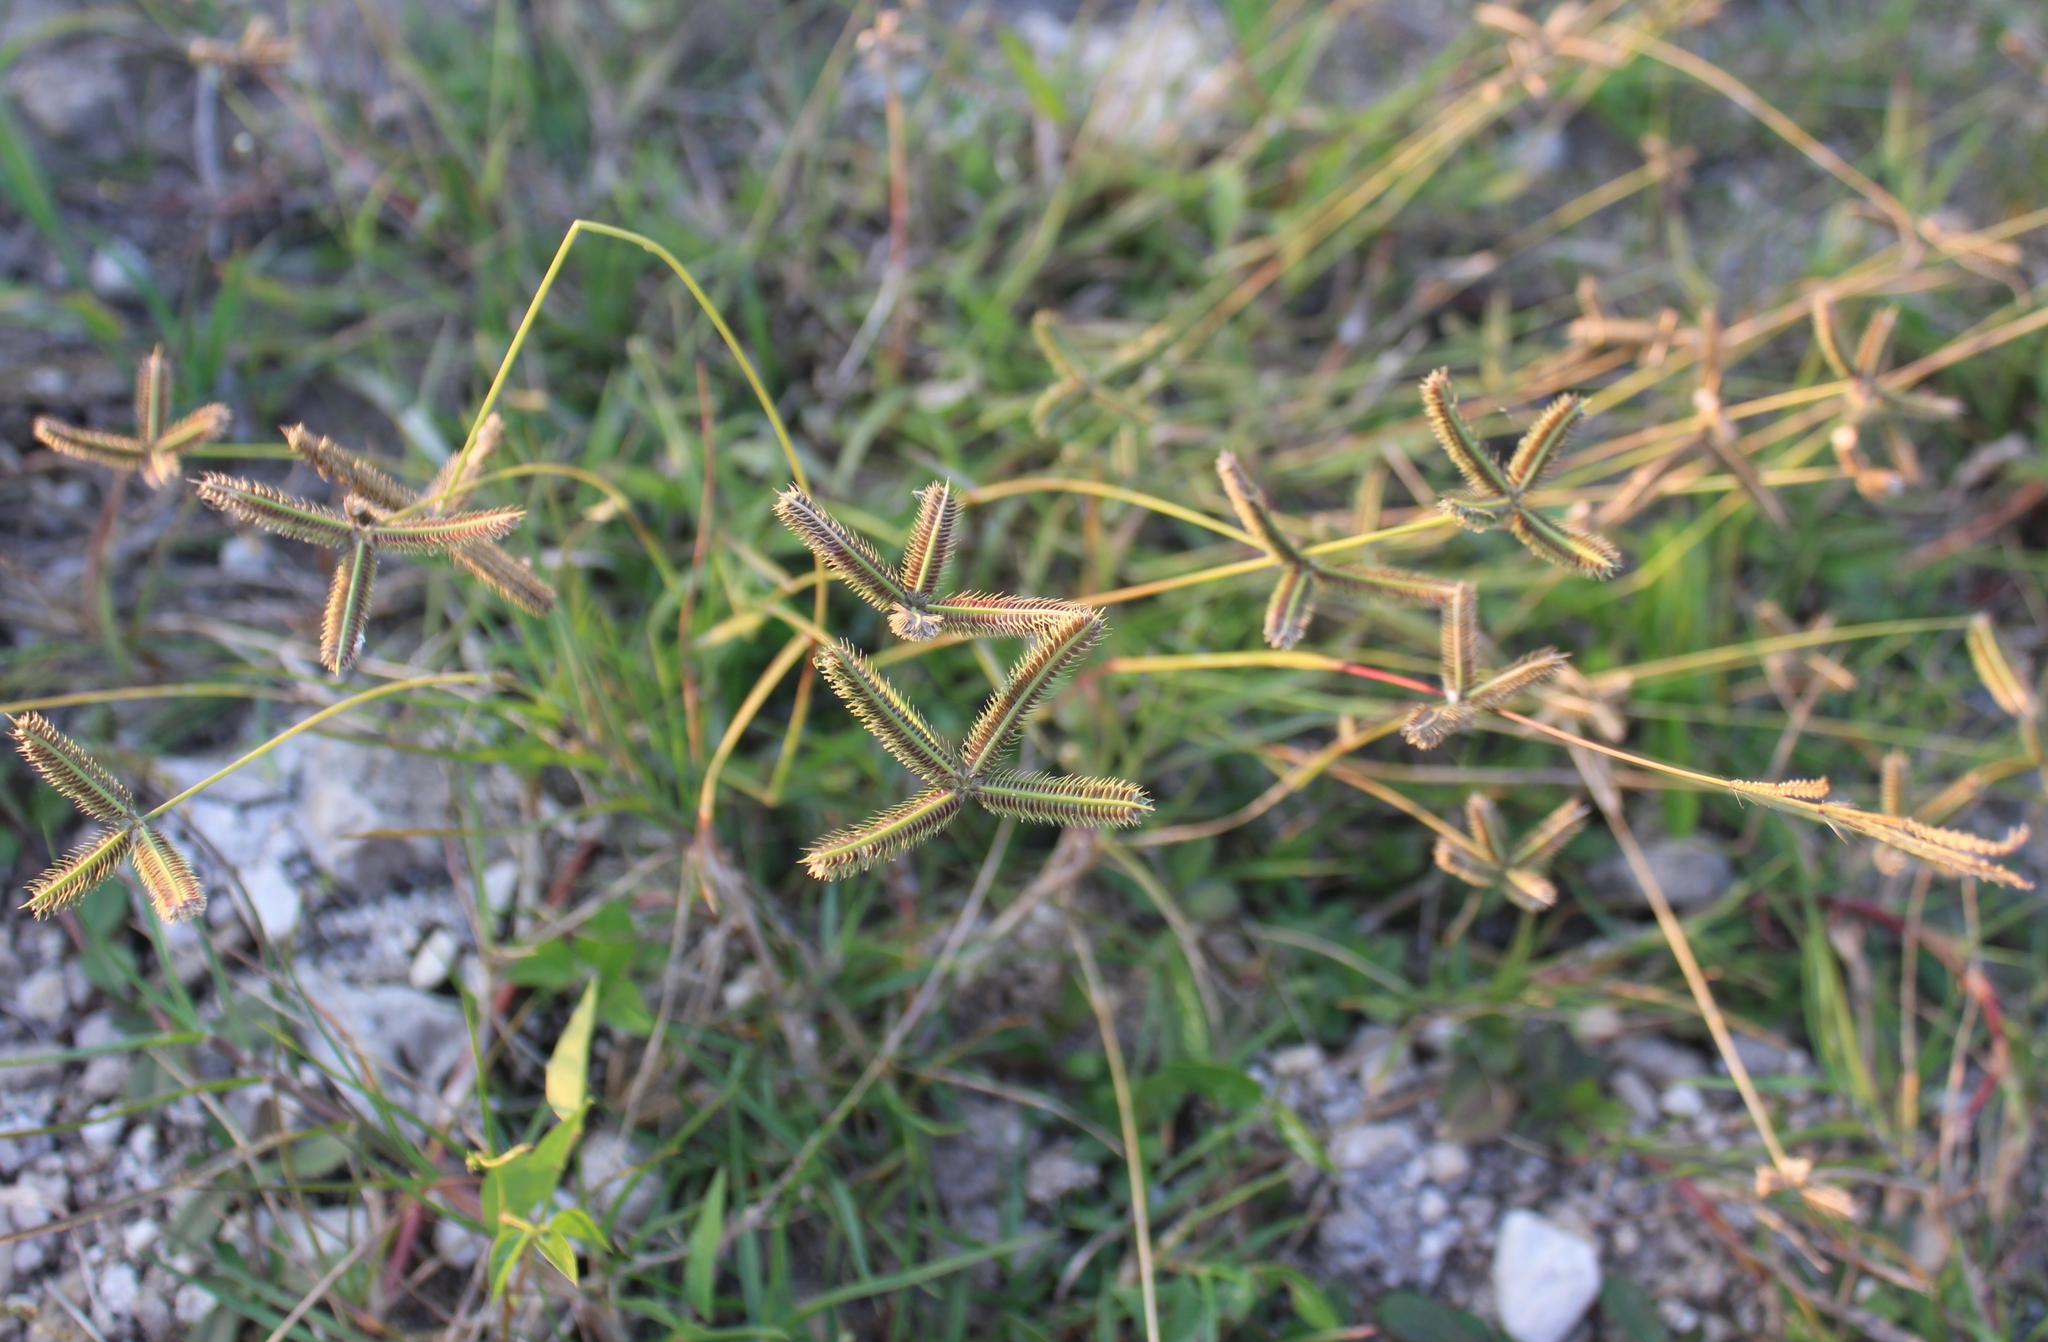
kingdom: Plantae
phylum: Tracheophyta
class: Liliopsida
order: Poales
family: Poaceae
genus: Dactyloctenium
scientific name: Dactyloctenium aegyptium
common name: Egyptian grass
